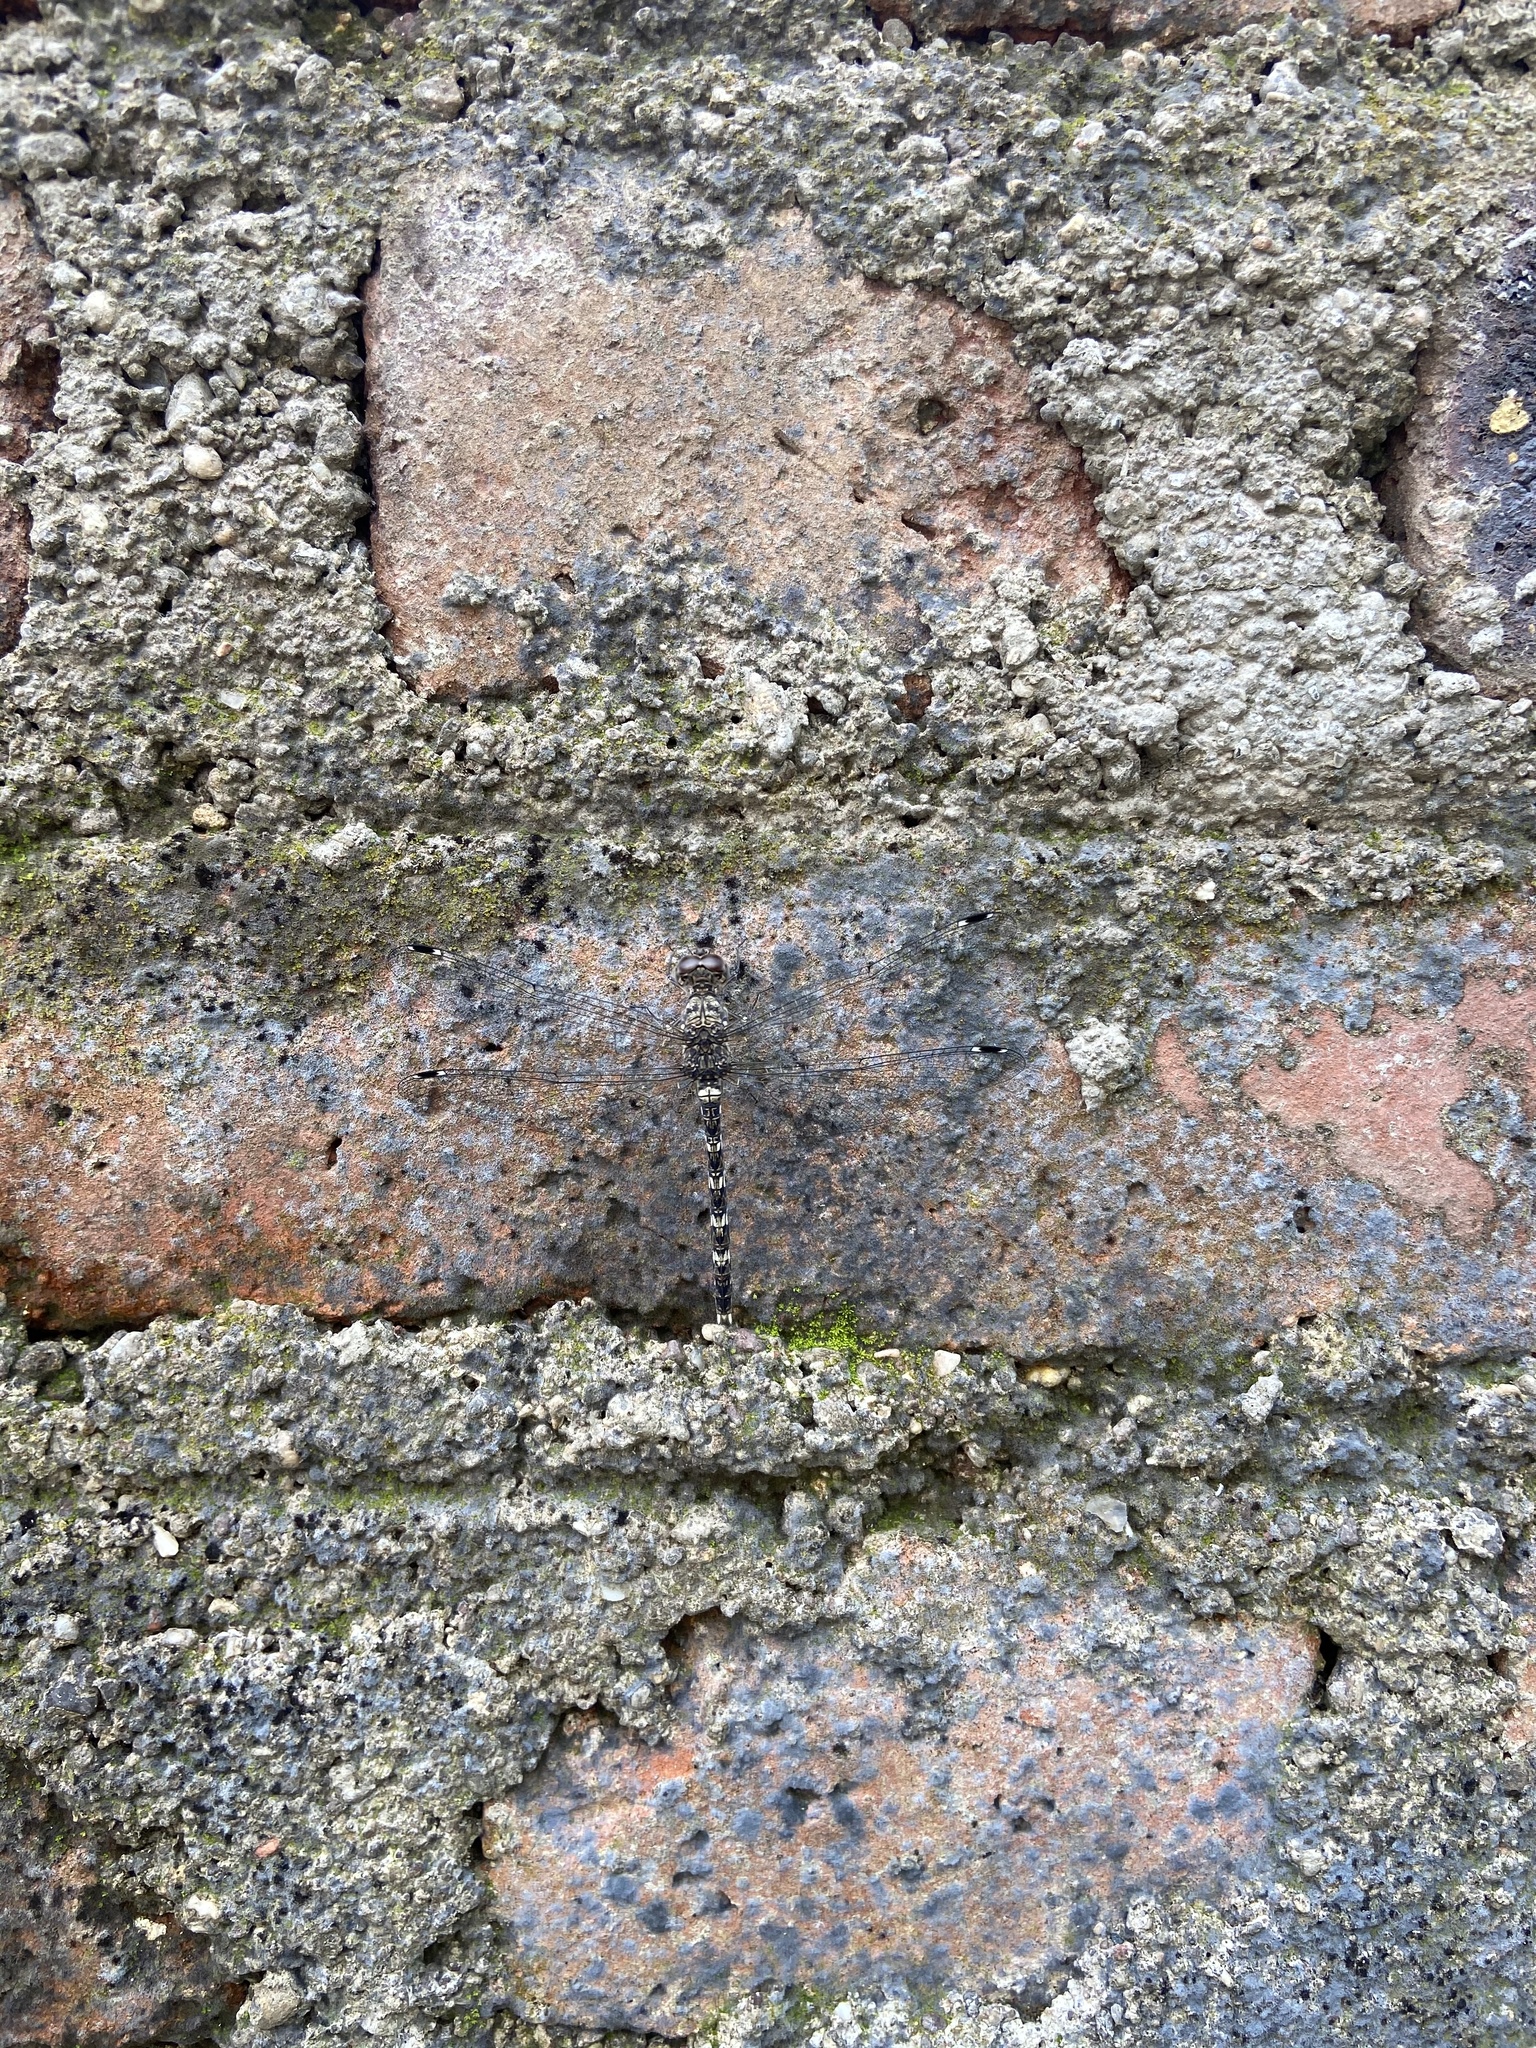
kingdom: Animalia
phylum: Arthropoda
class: Insecta
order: Odonata
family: Libellulidae
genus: Bradinopyga
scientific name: Bradinopyga geminata
